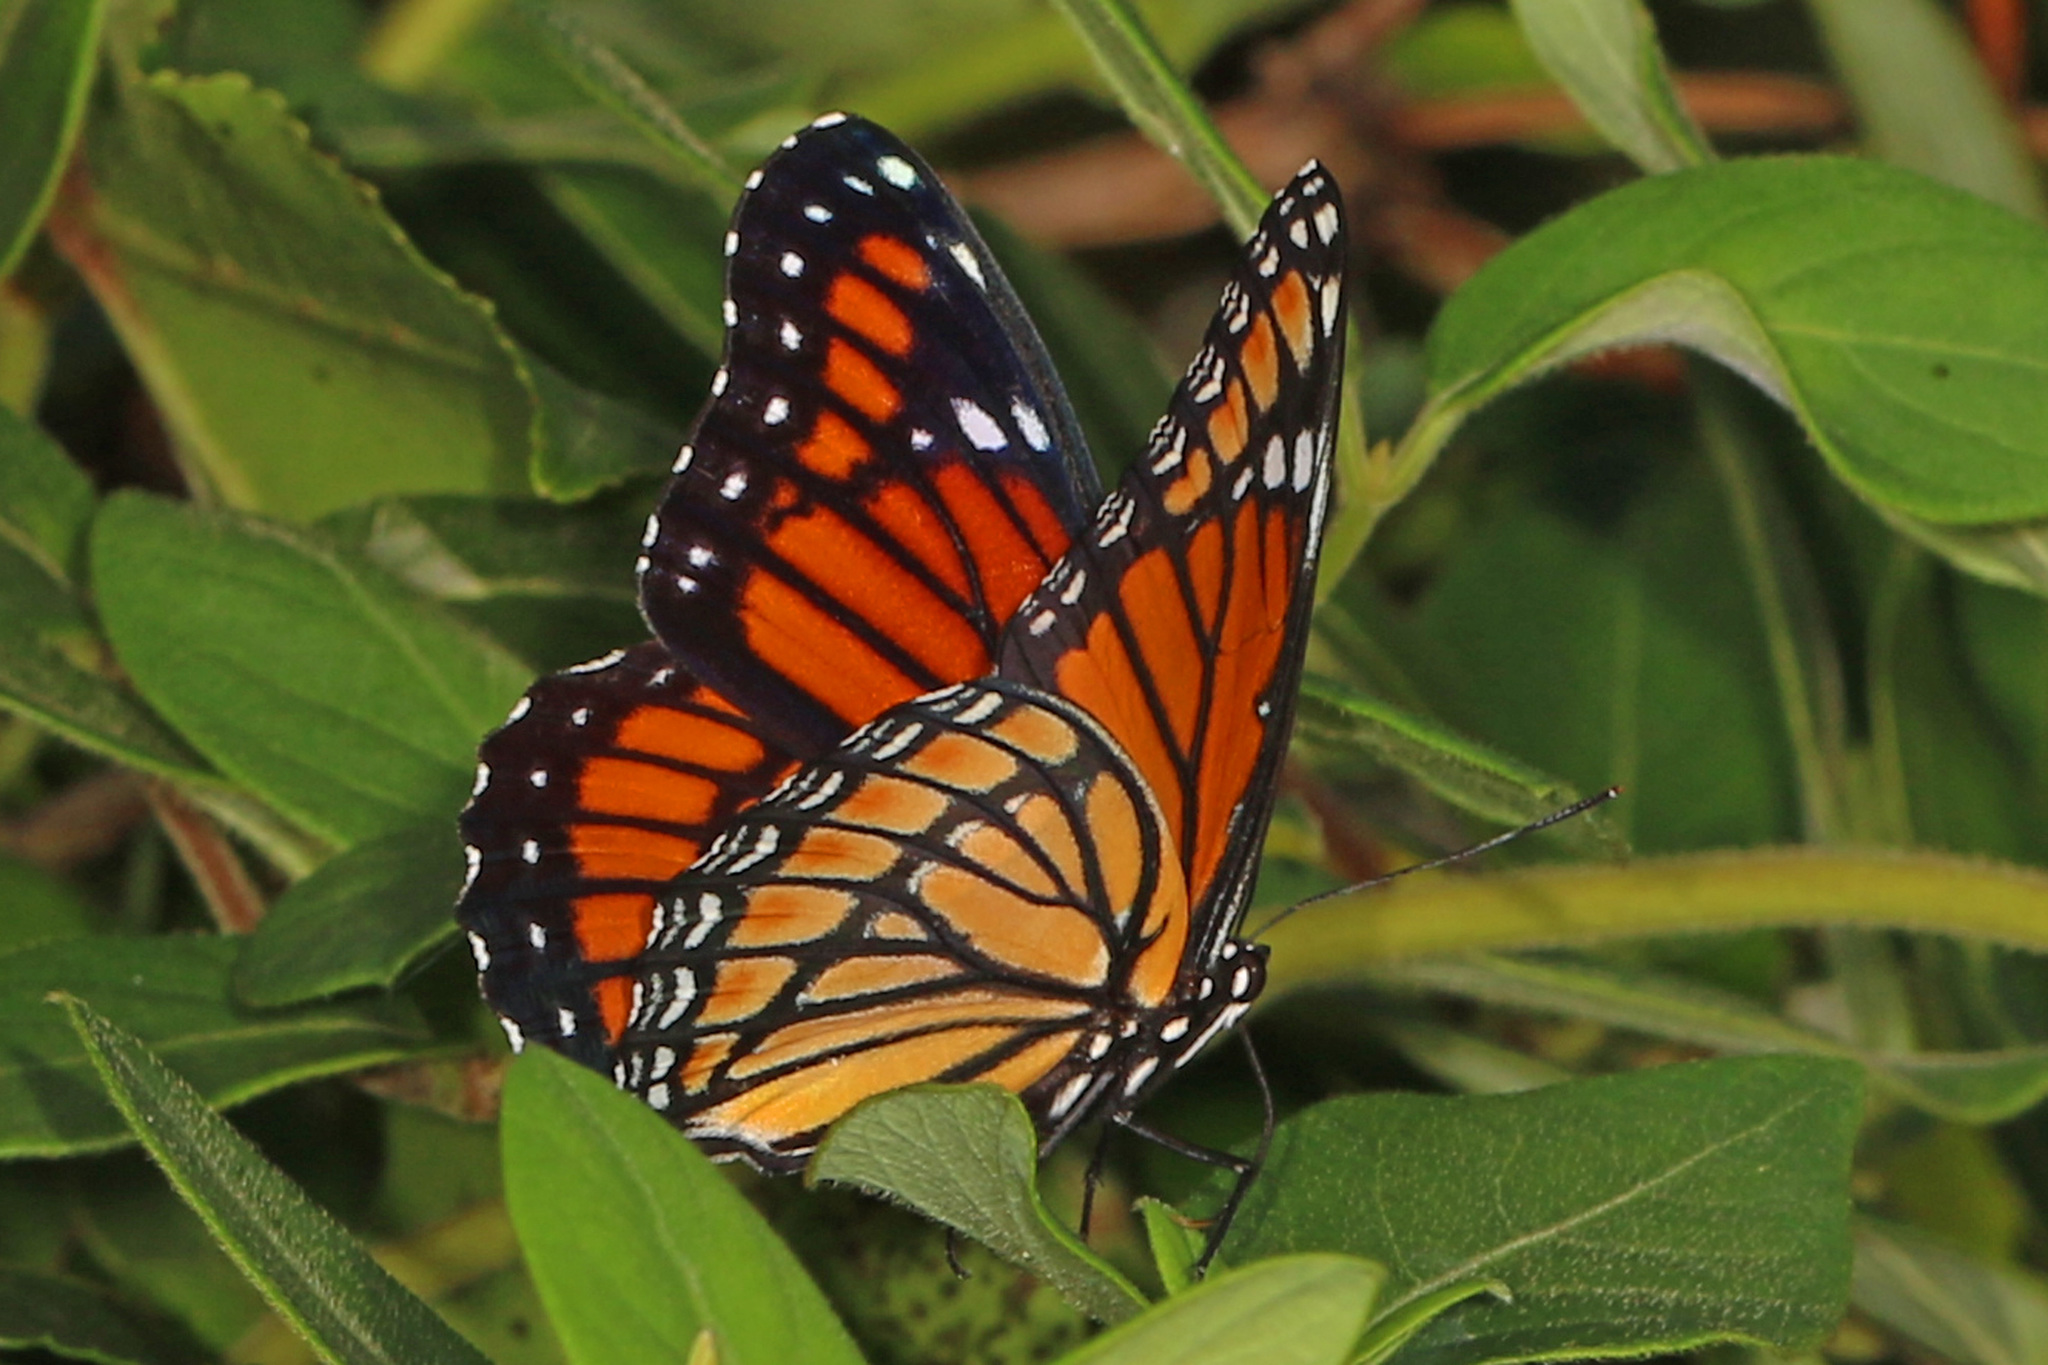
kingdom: Animalia
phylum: Arthropoda
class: Insecta
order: Lepidoptera
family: Nymphalidae
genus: Limenitis
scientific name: Limenitis archippus
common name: Viceroy
